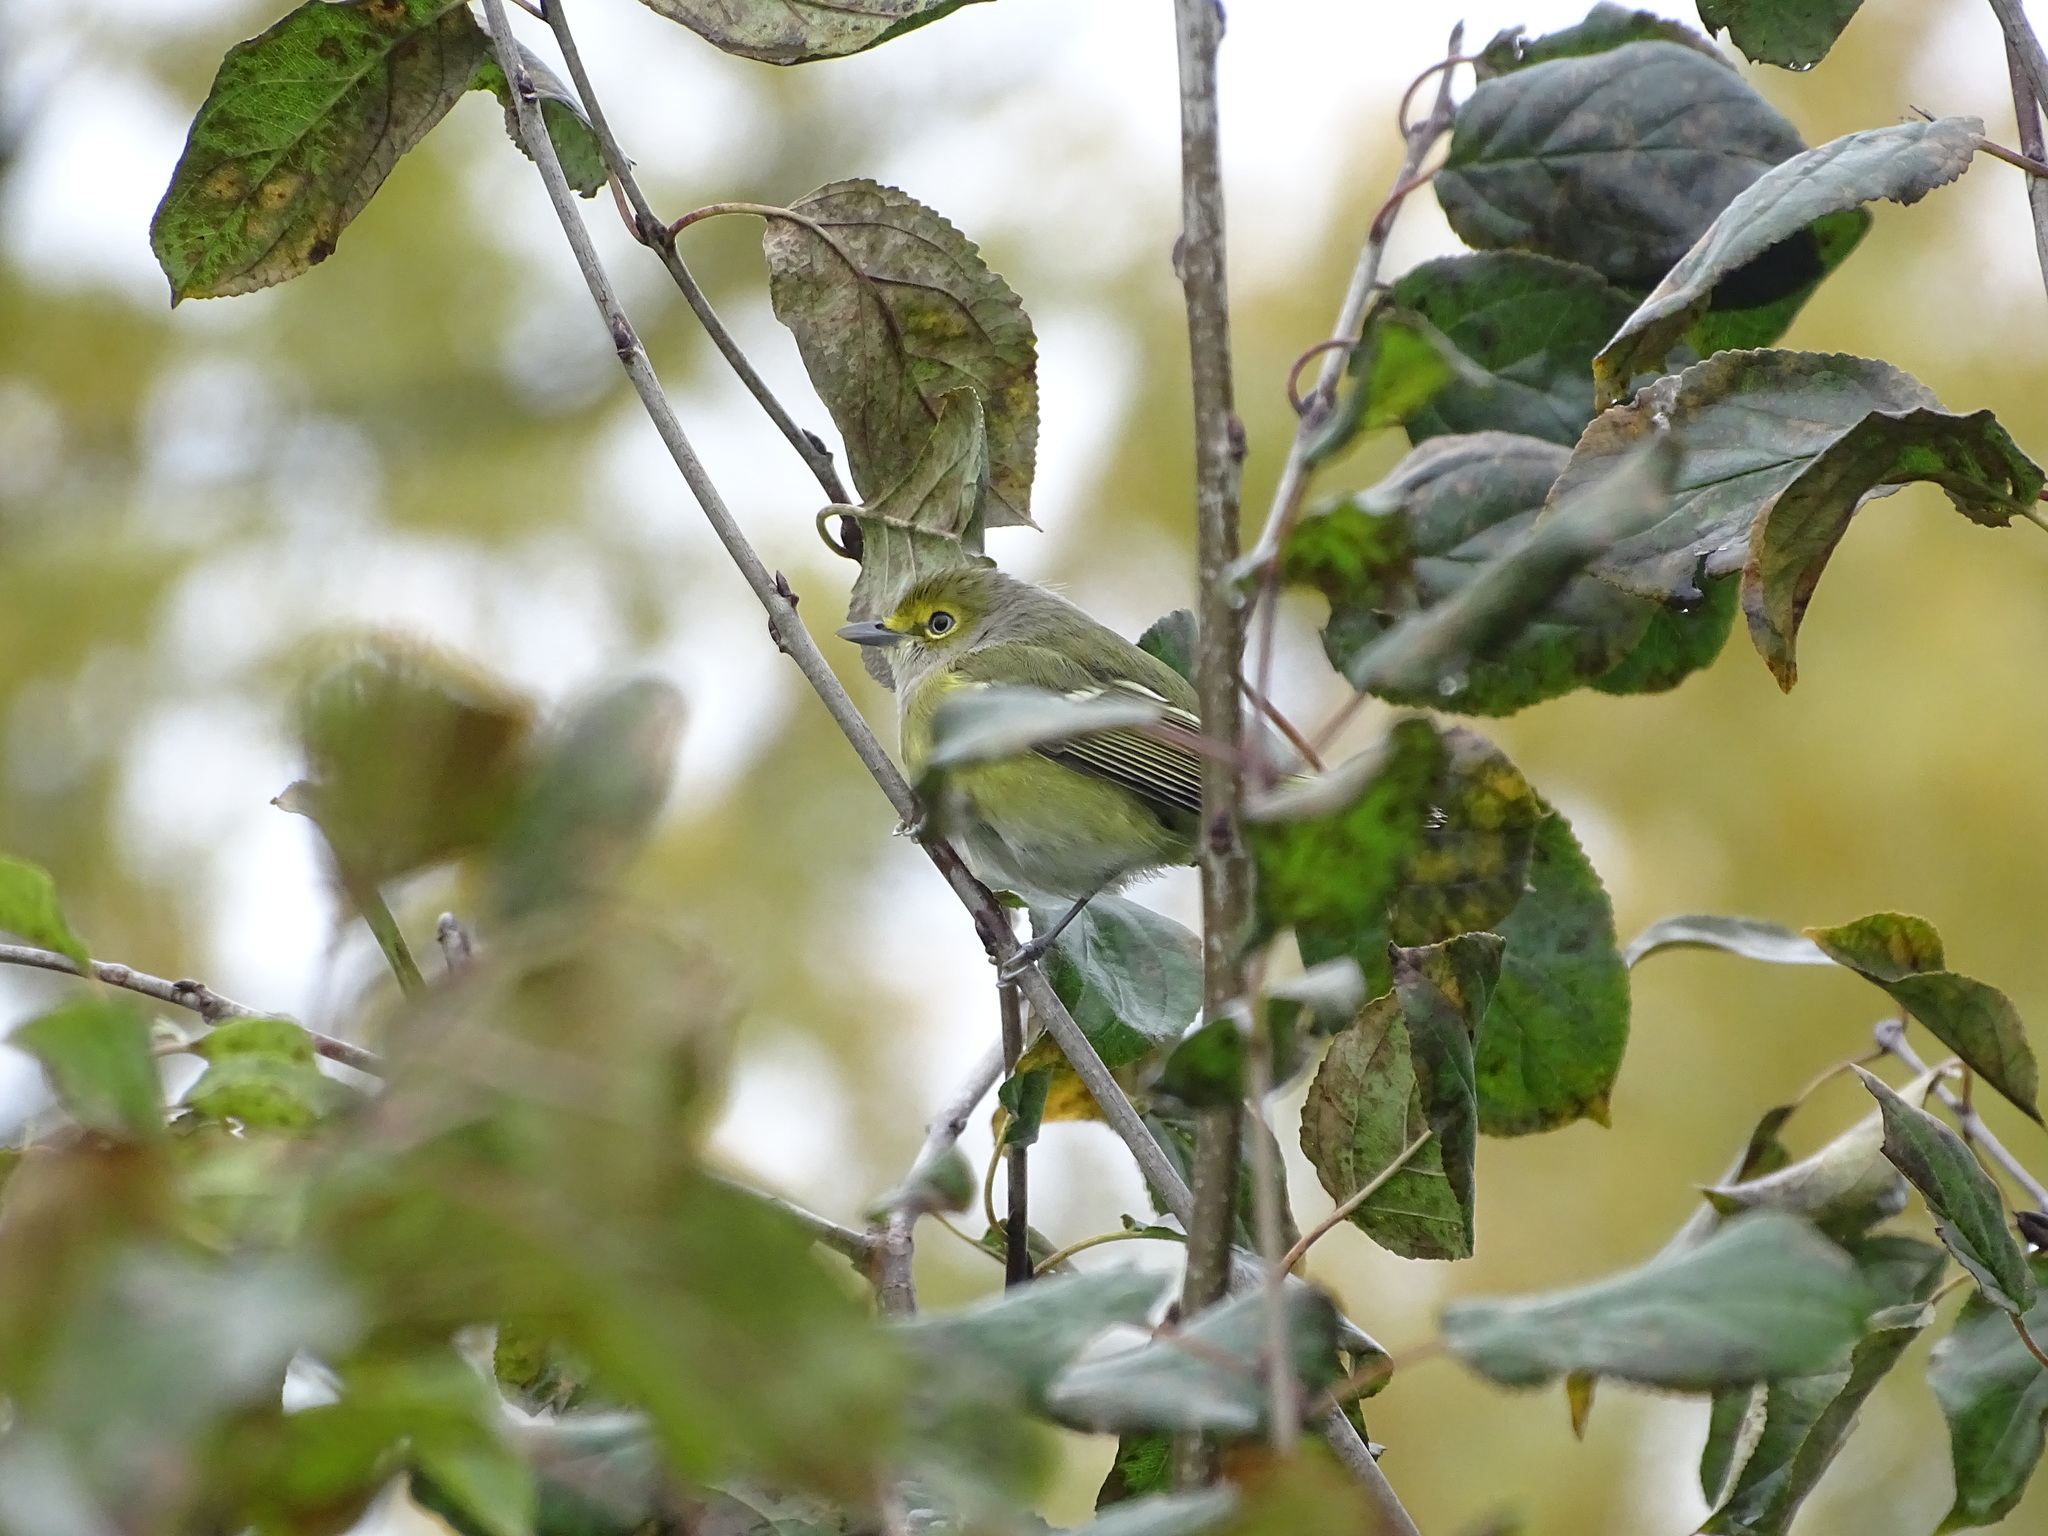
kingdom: Animalia
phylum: Chordata
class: Aves
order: Passeriformes
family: Vireonidae
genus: Vireo
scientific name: Vireo griseus
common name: White-eyed vireo
